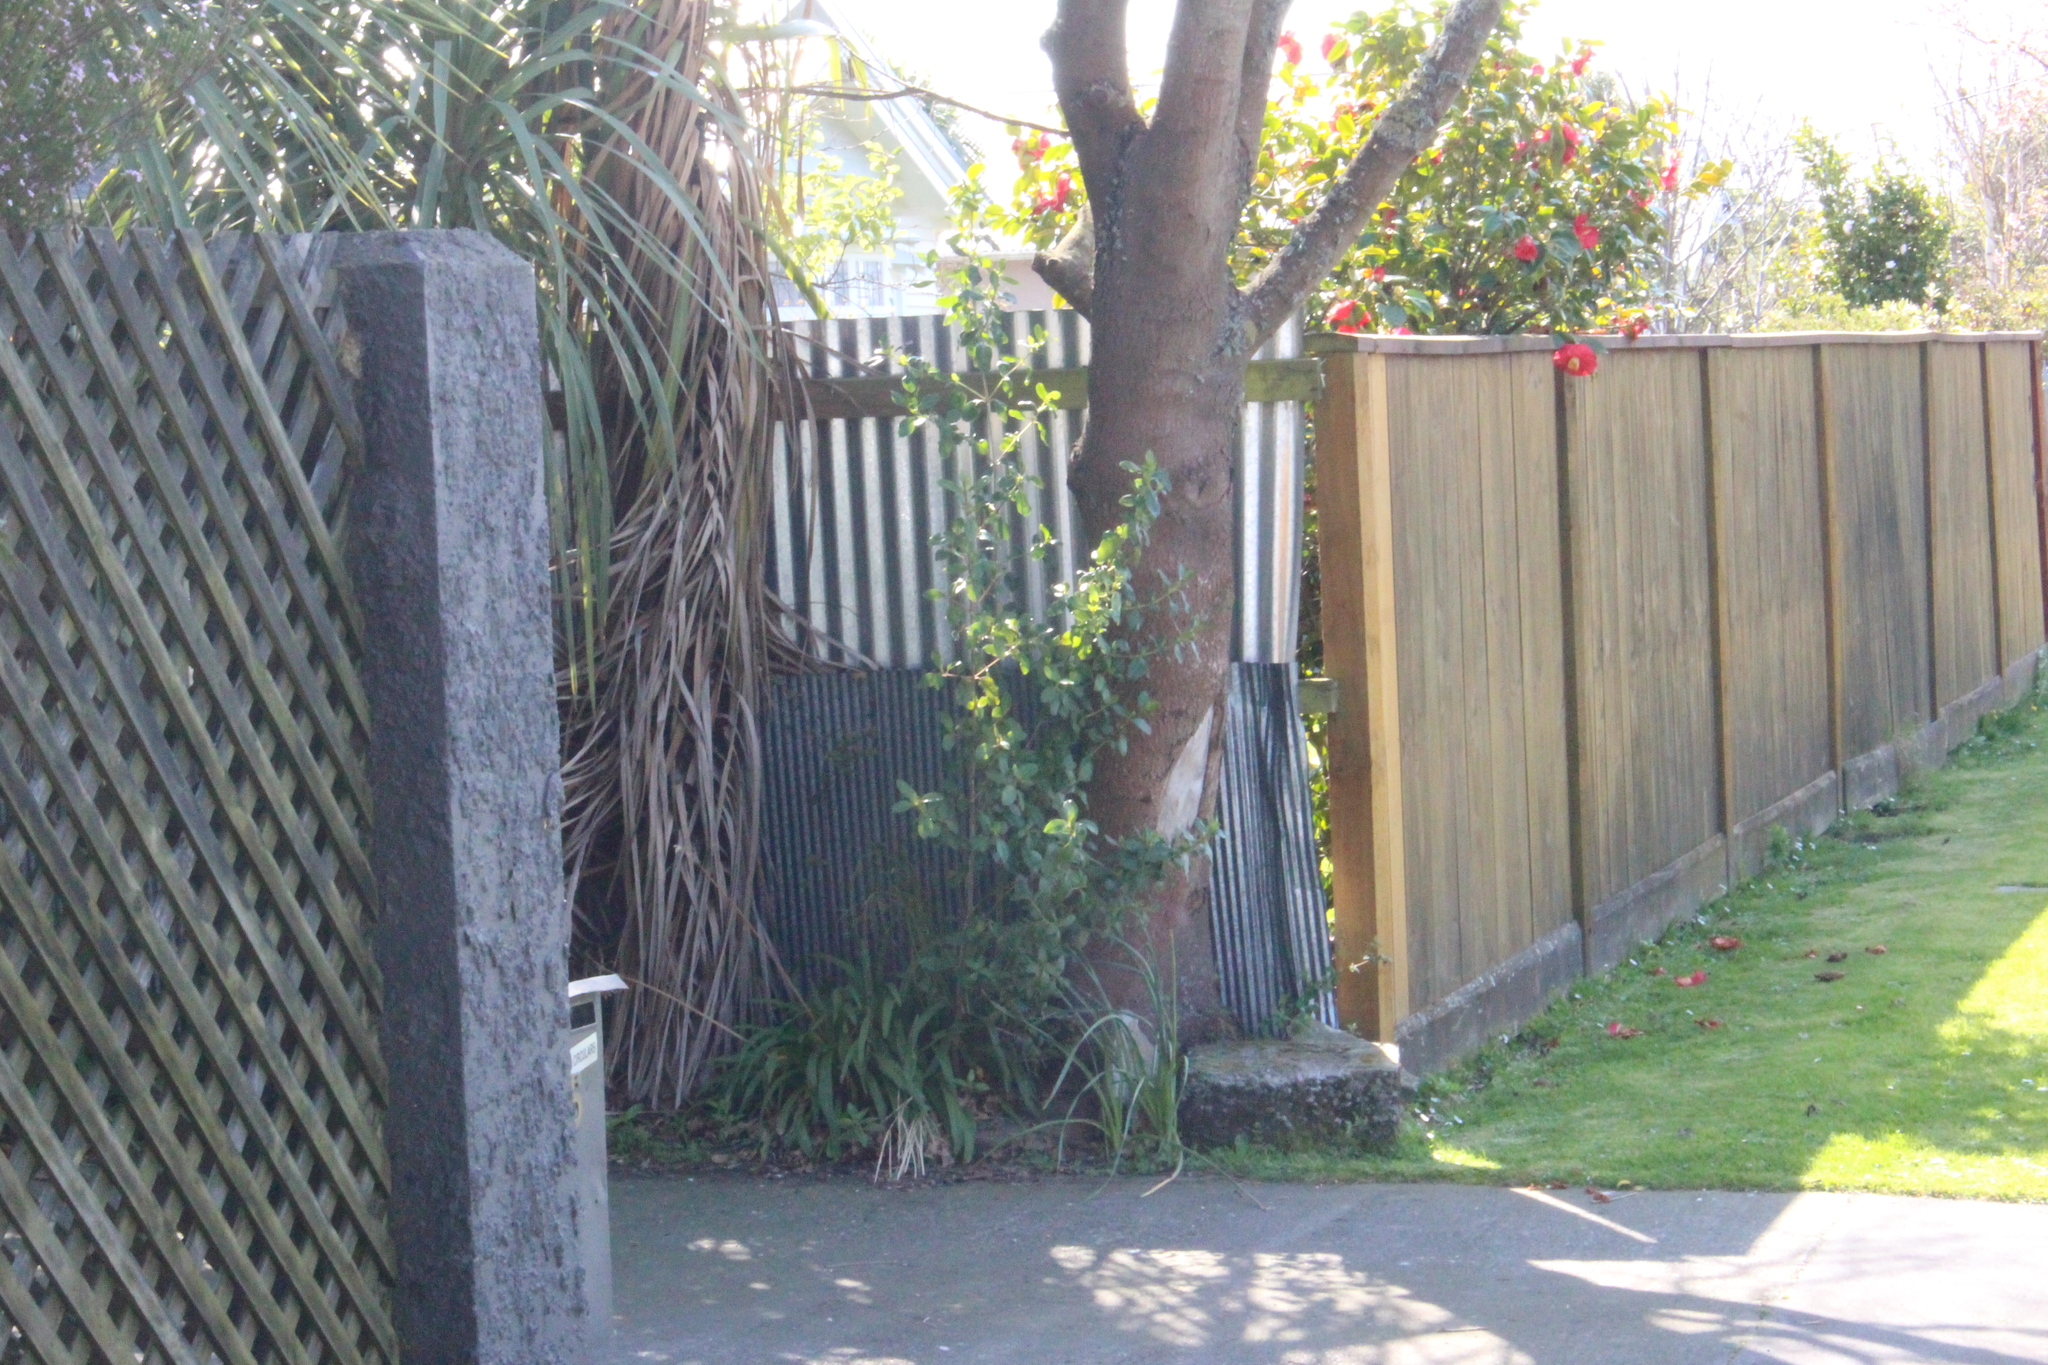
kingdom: Plantae
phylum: Tracheophyta
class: Magnoliopsida
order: Gentianales
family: Rubiaceae
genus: Coprosma
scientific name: Coprosma robusta
